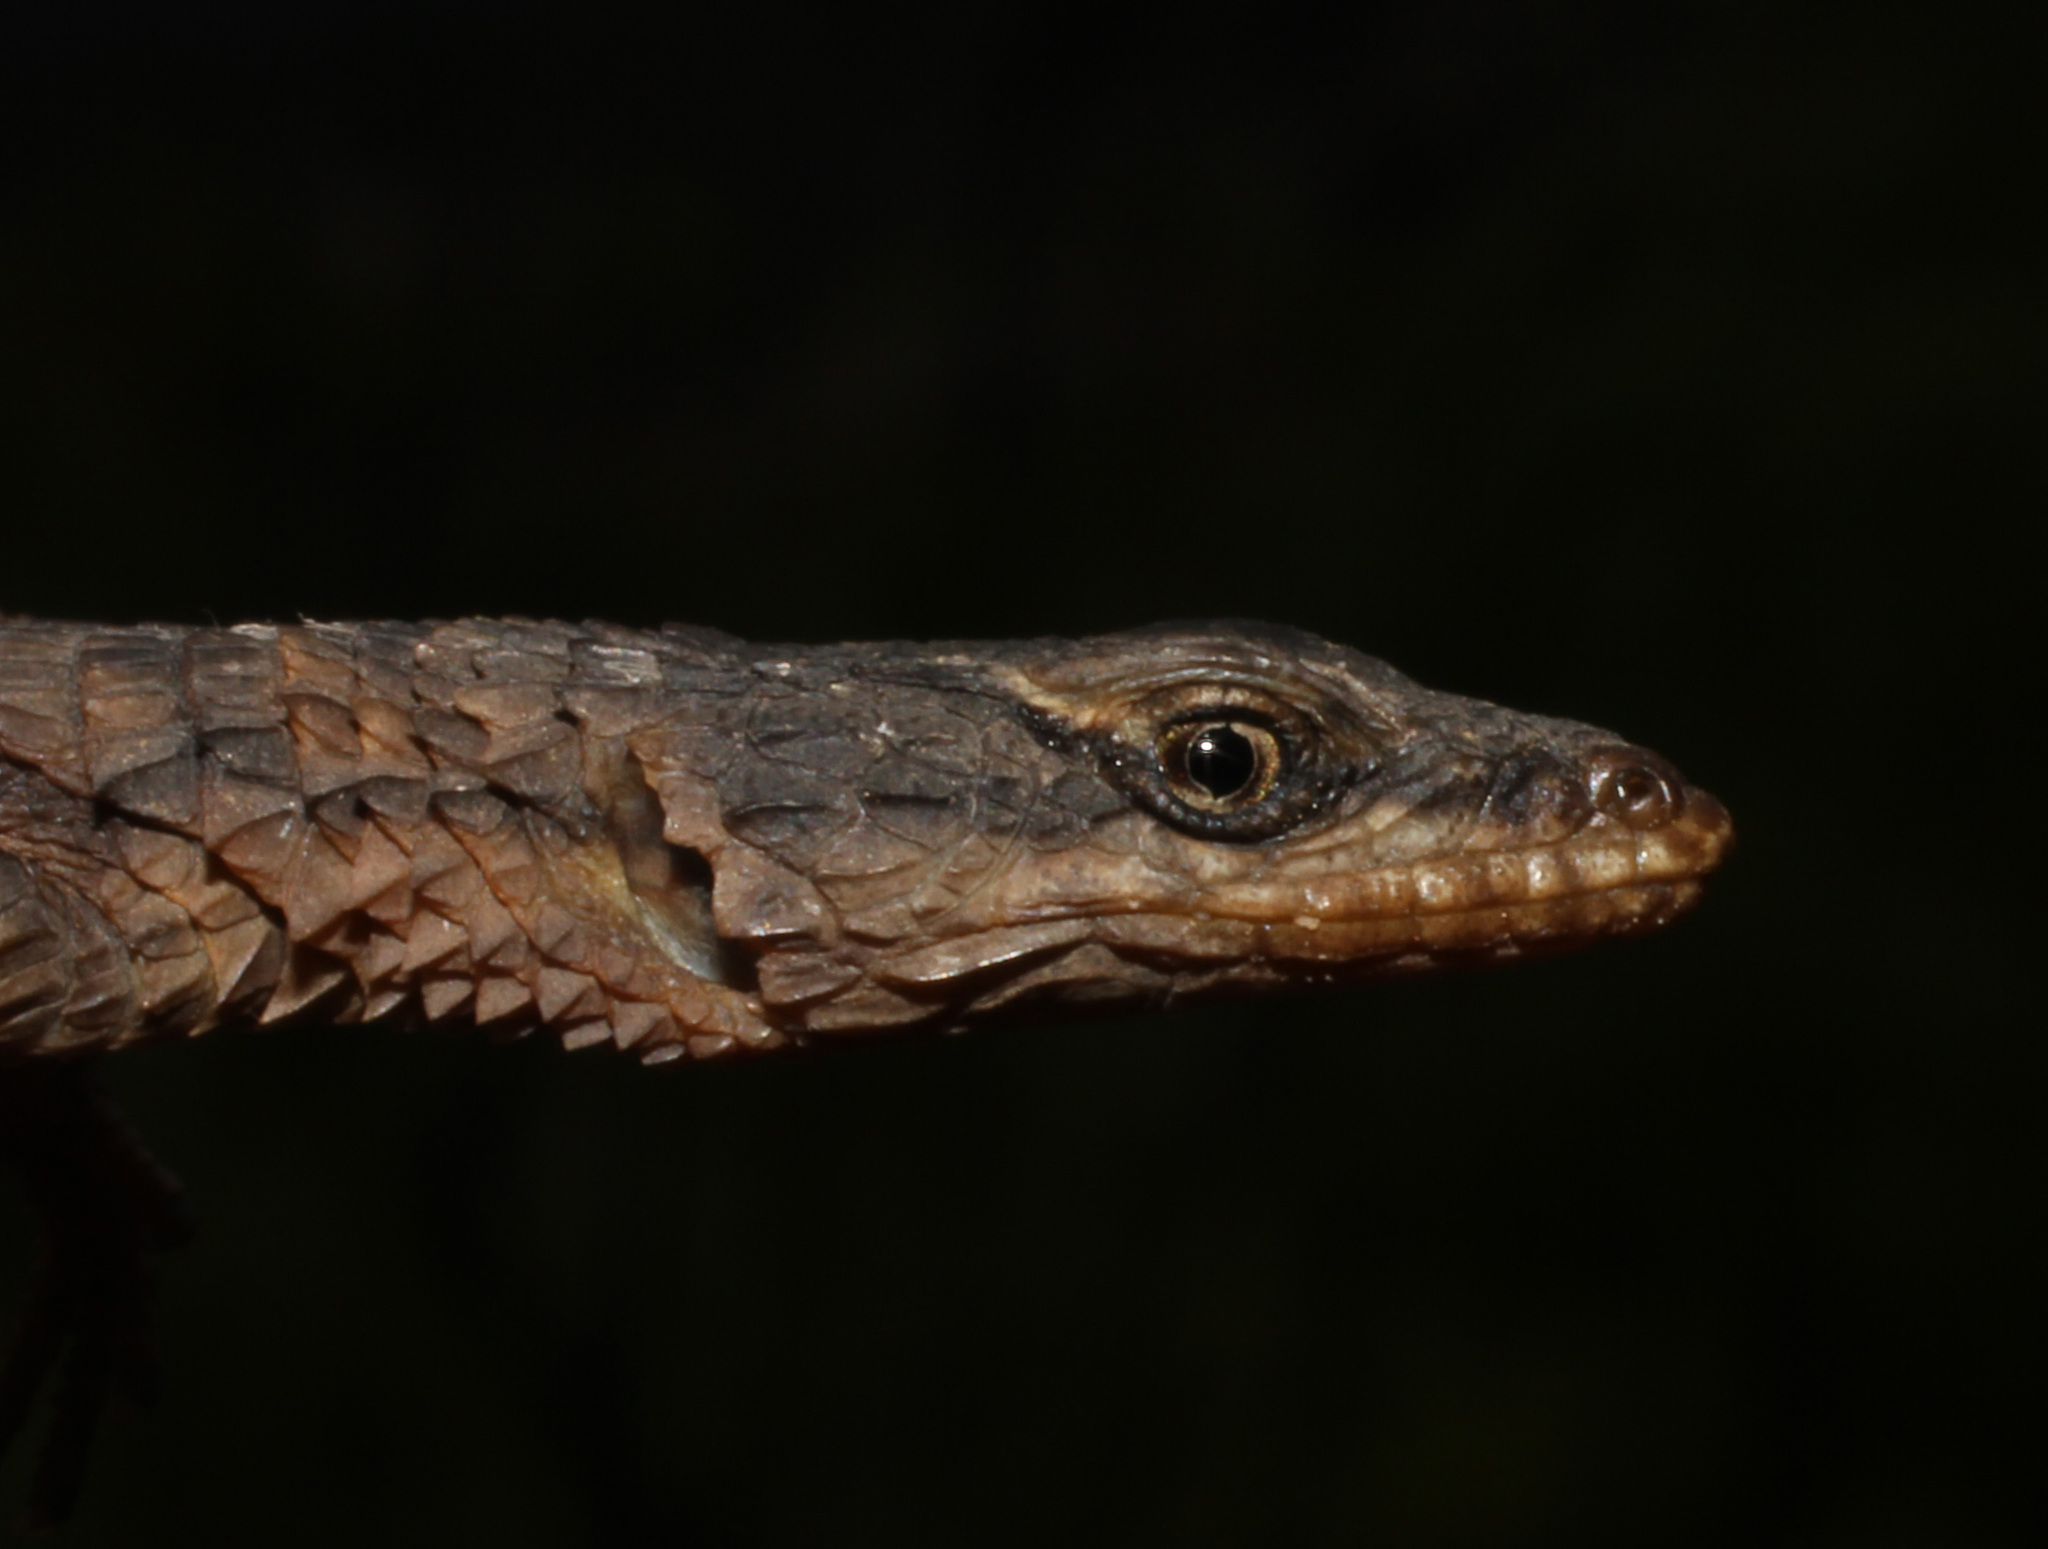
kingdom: Animalia
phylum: Chordata
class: Squamata
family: Cordylidae
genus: Cordylus
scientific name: Cordylus mclachlani
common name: Mclachlan's girdled lizard
